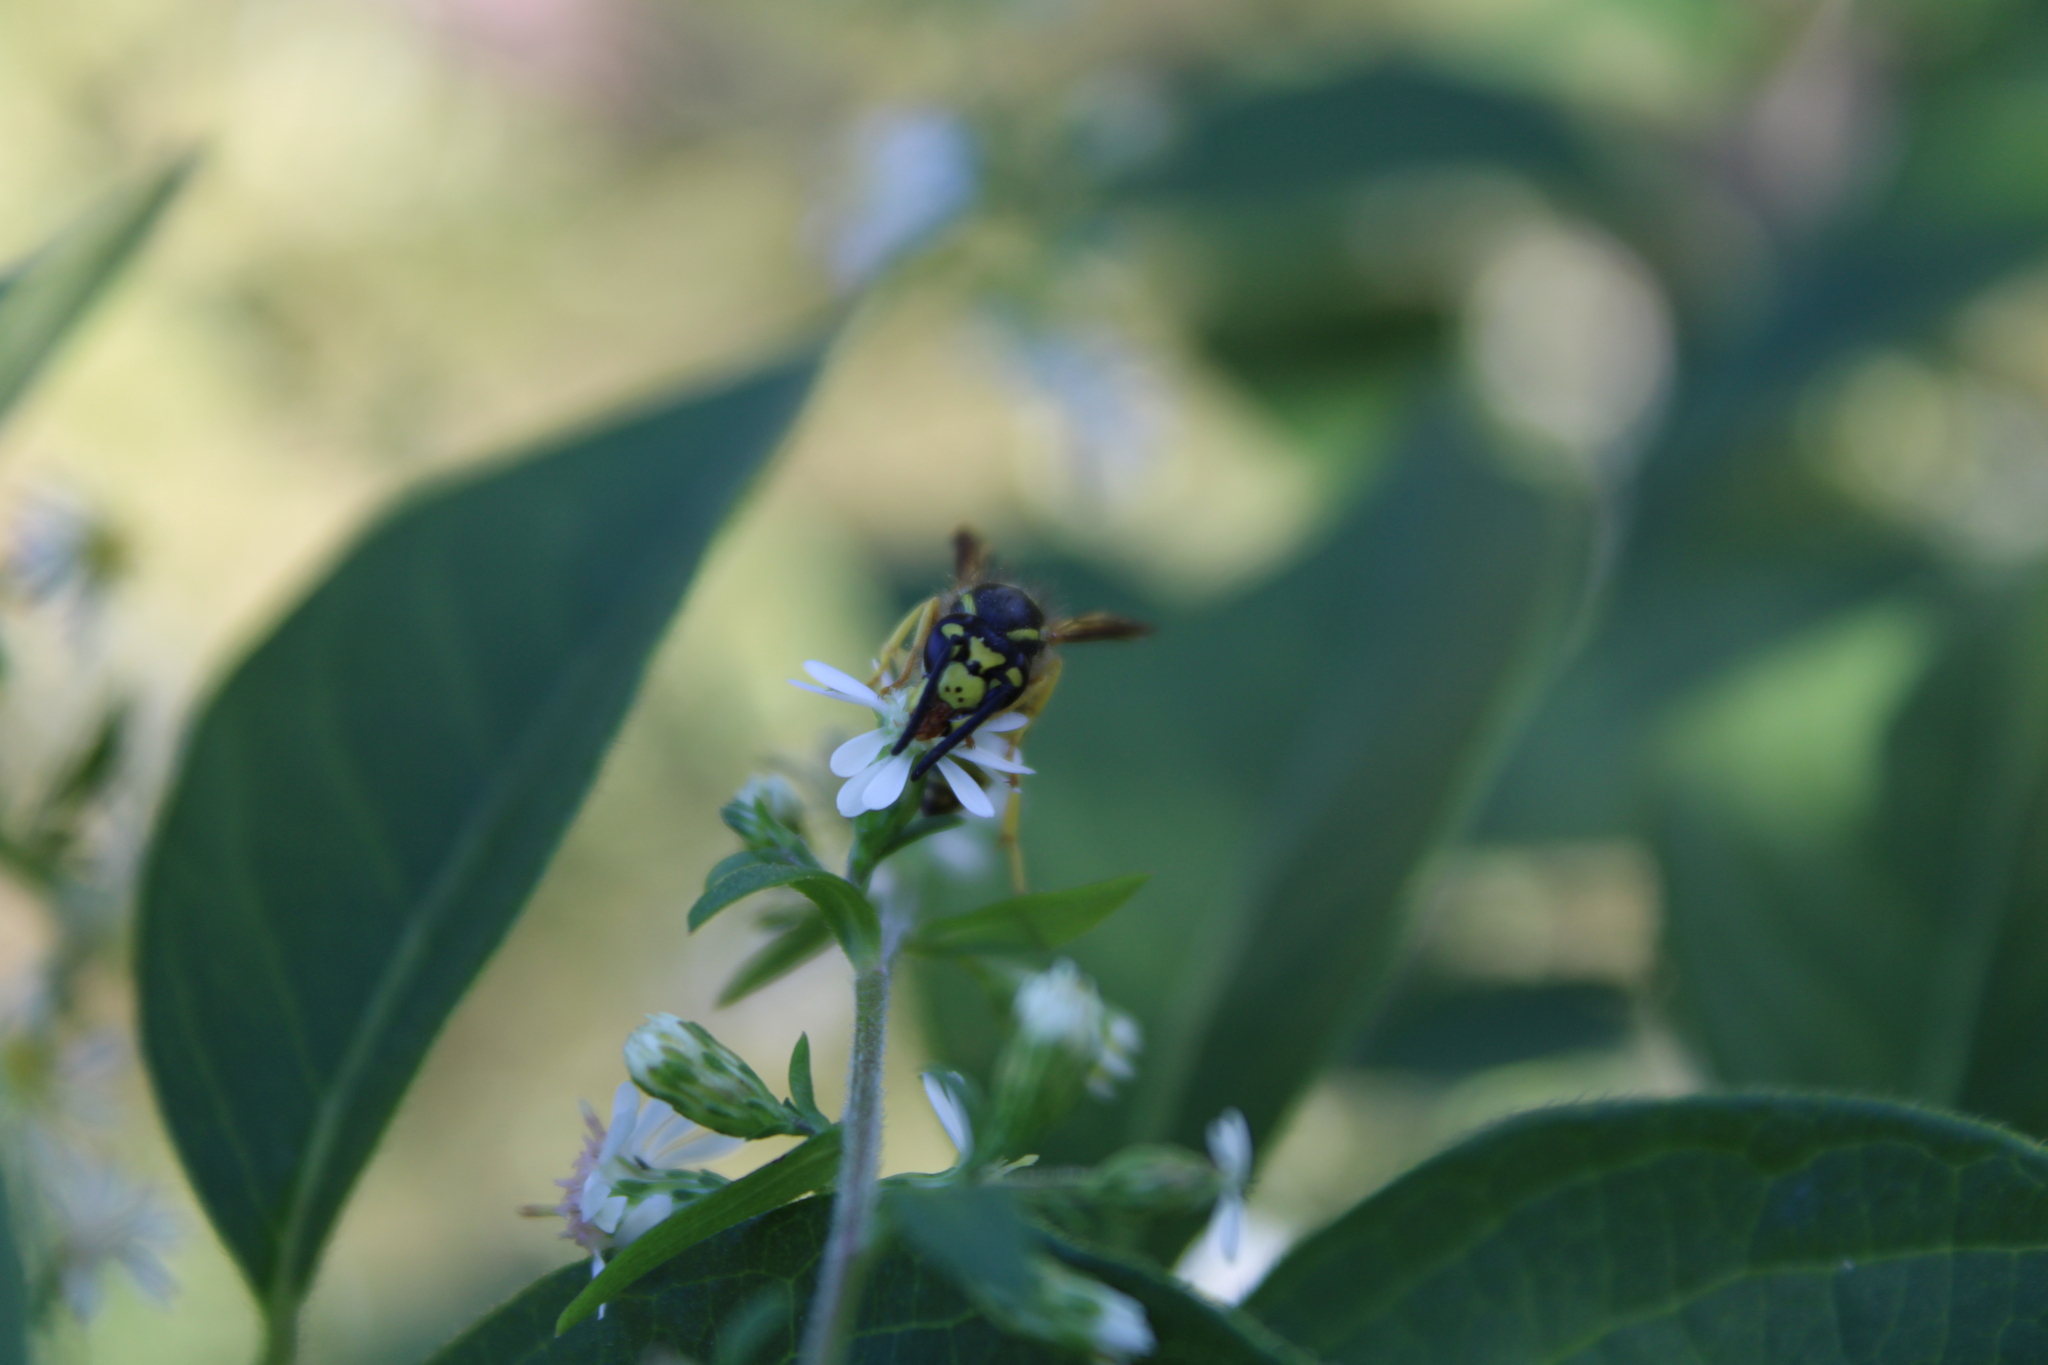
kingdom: Animalia
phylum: Arthropoda
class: Insecta
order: Hymenoptera
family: Vespidae
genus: Vespula
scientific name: Vespula maculifrons
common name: Eastern yellowjacket
